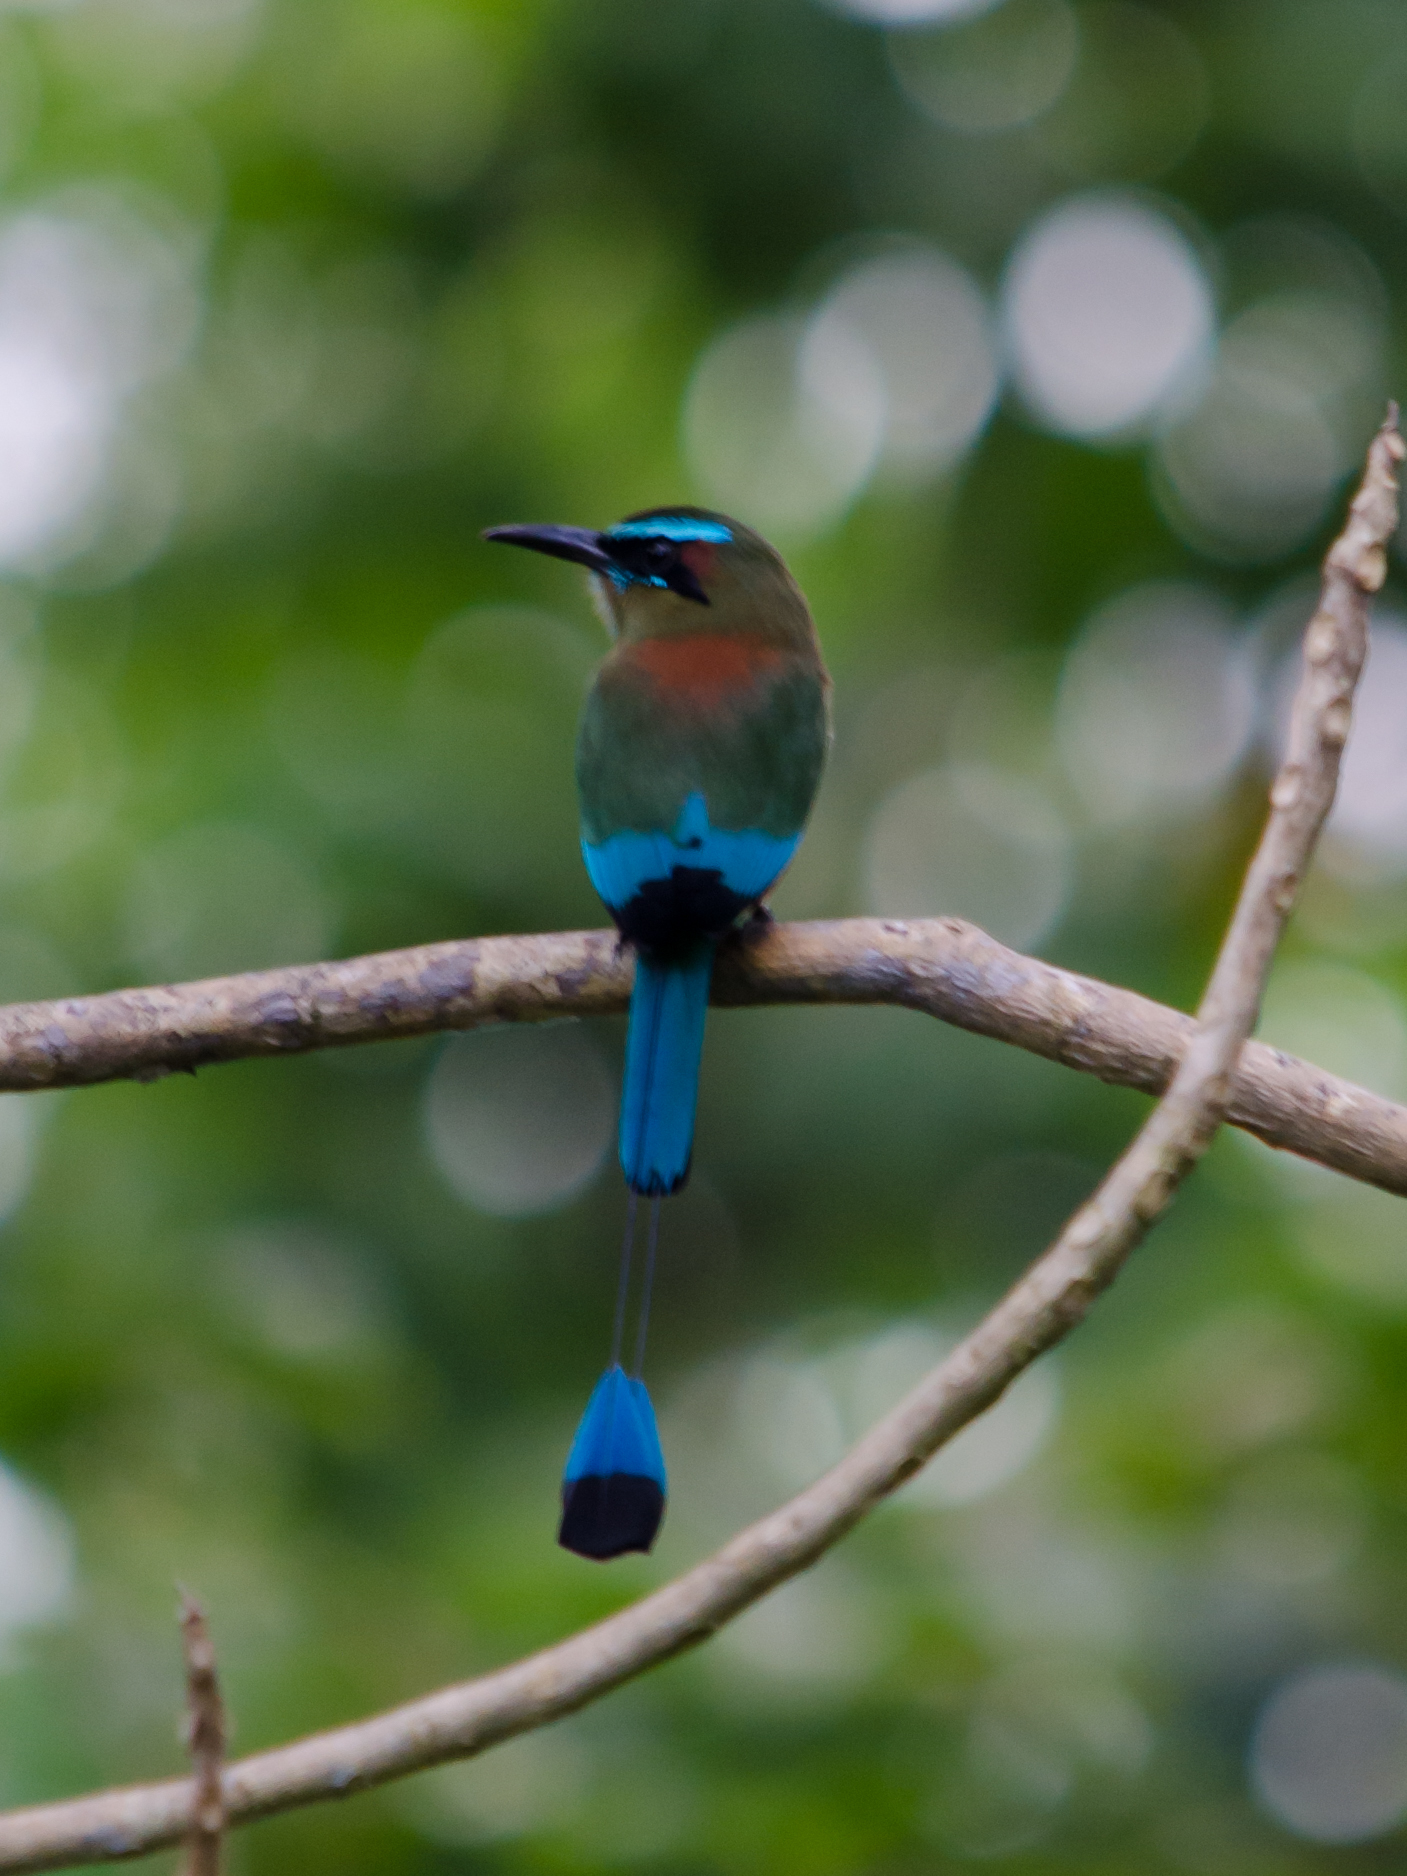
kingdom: Animalia
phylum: Chordata
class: Aves
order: Coraciiformes
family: Momotidae
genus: Eumomota
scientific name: Eumomota superciliosa
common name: Turquoise-browed motmot
